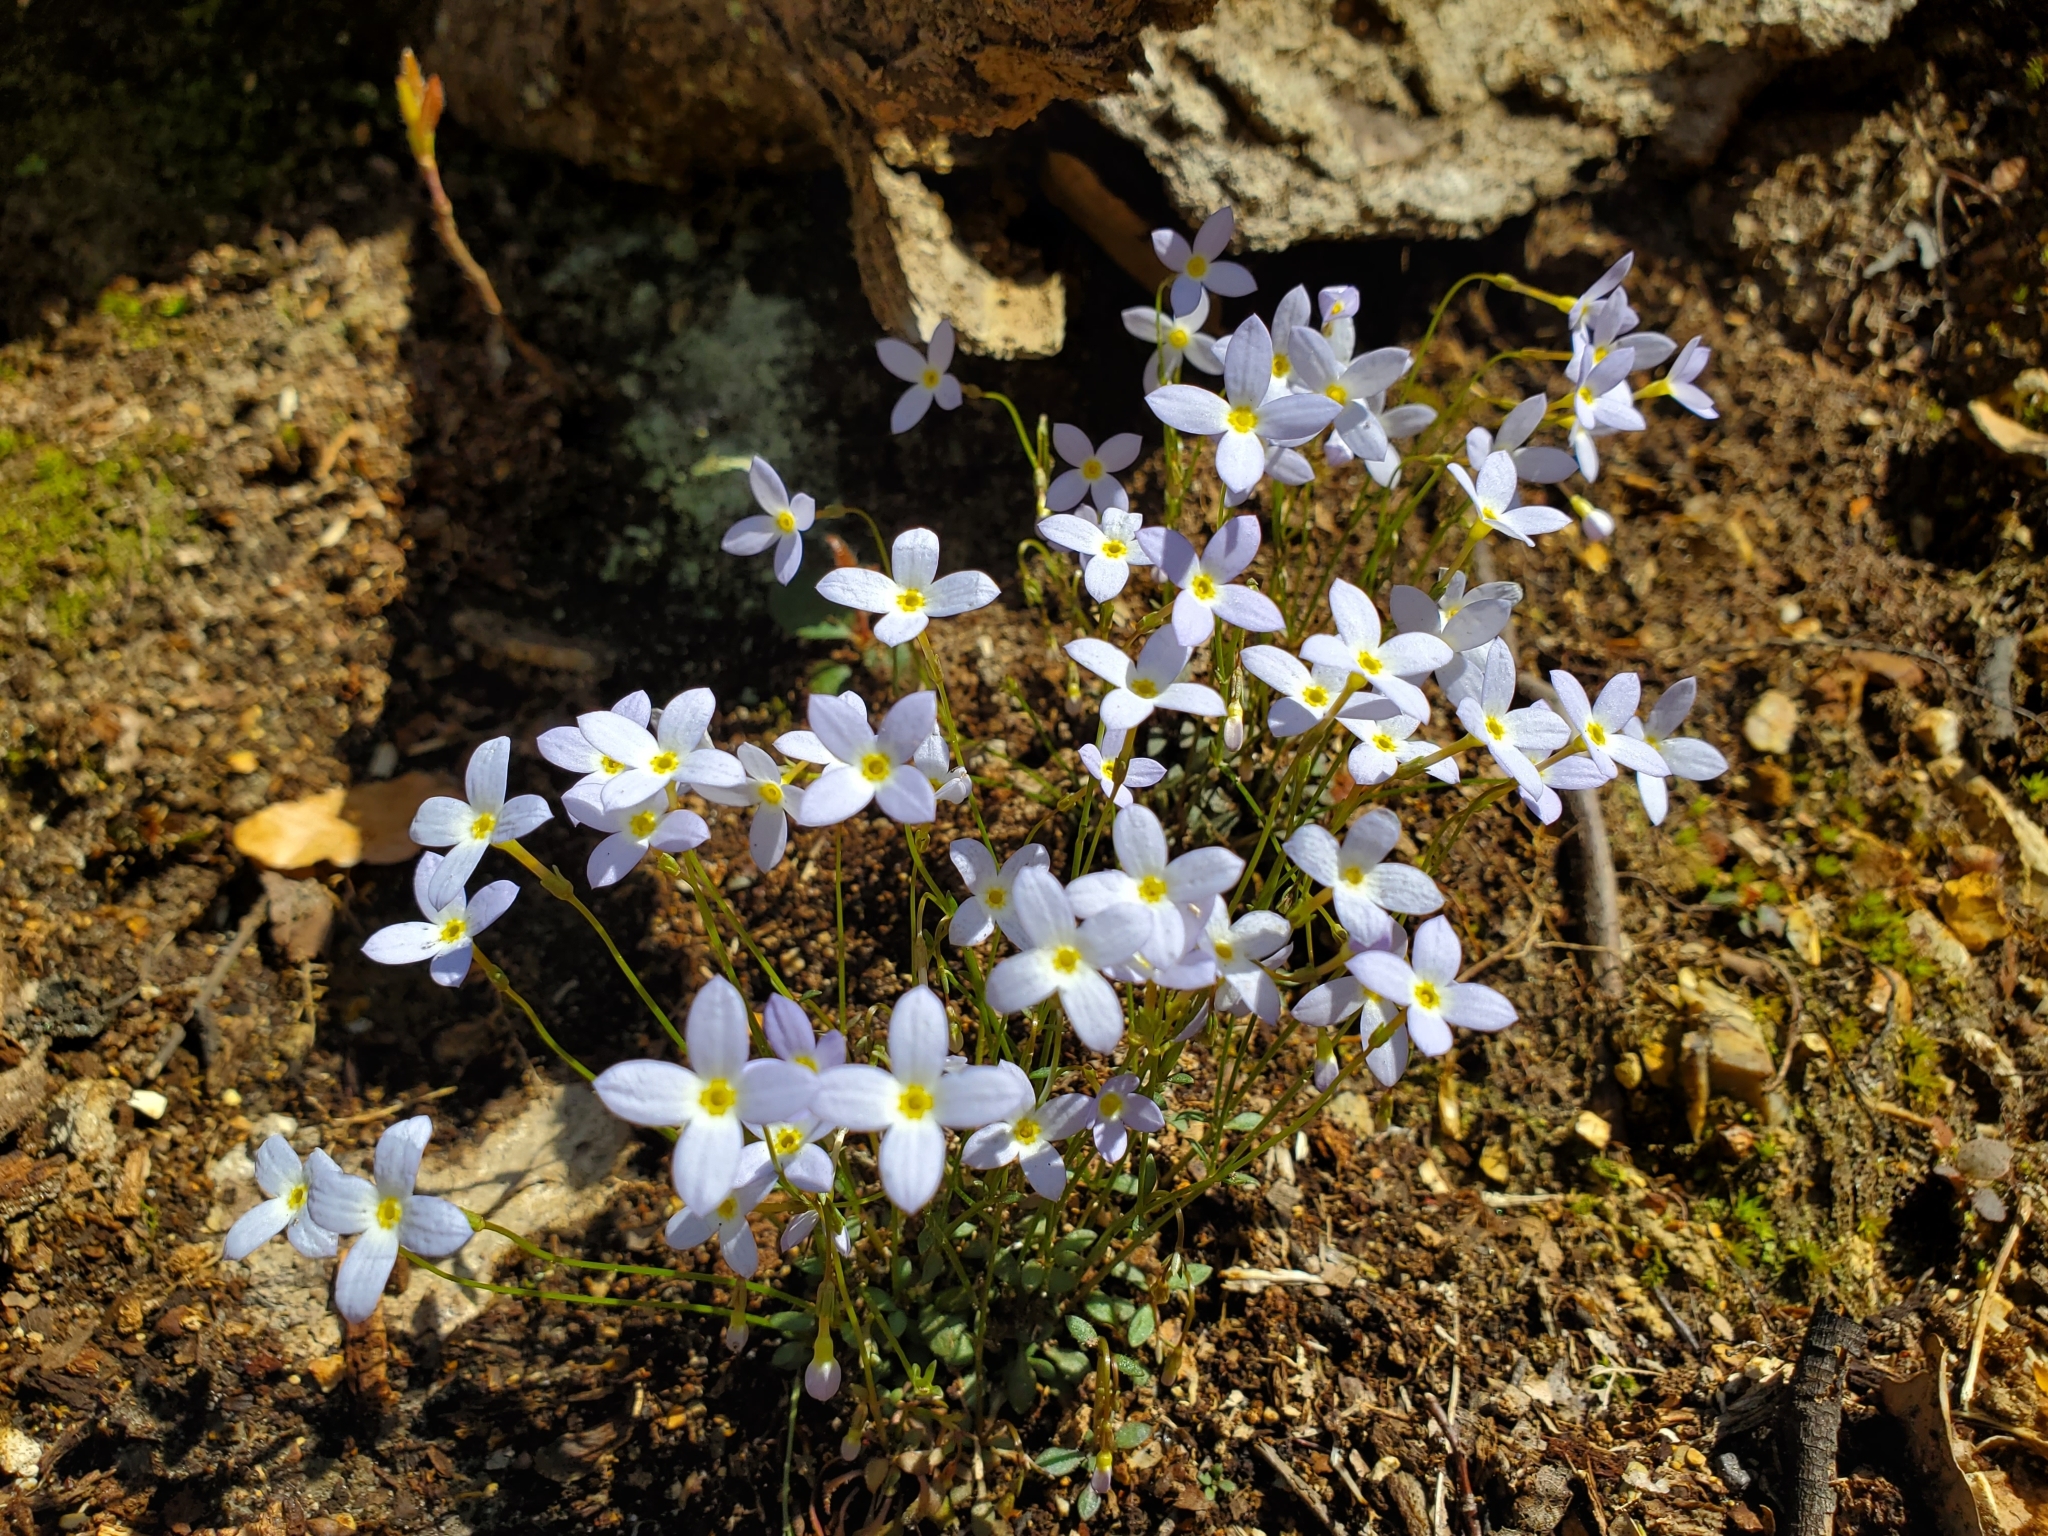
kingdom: Plantae
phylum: Tracheophyta
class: Magnoliopsida
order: Gentianales
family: Rubiaceae
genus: Houstonia
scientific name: Houstonia caerulea
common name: Bluets
